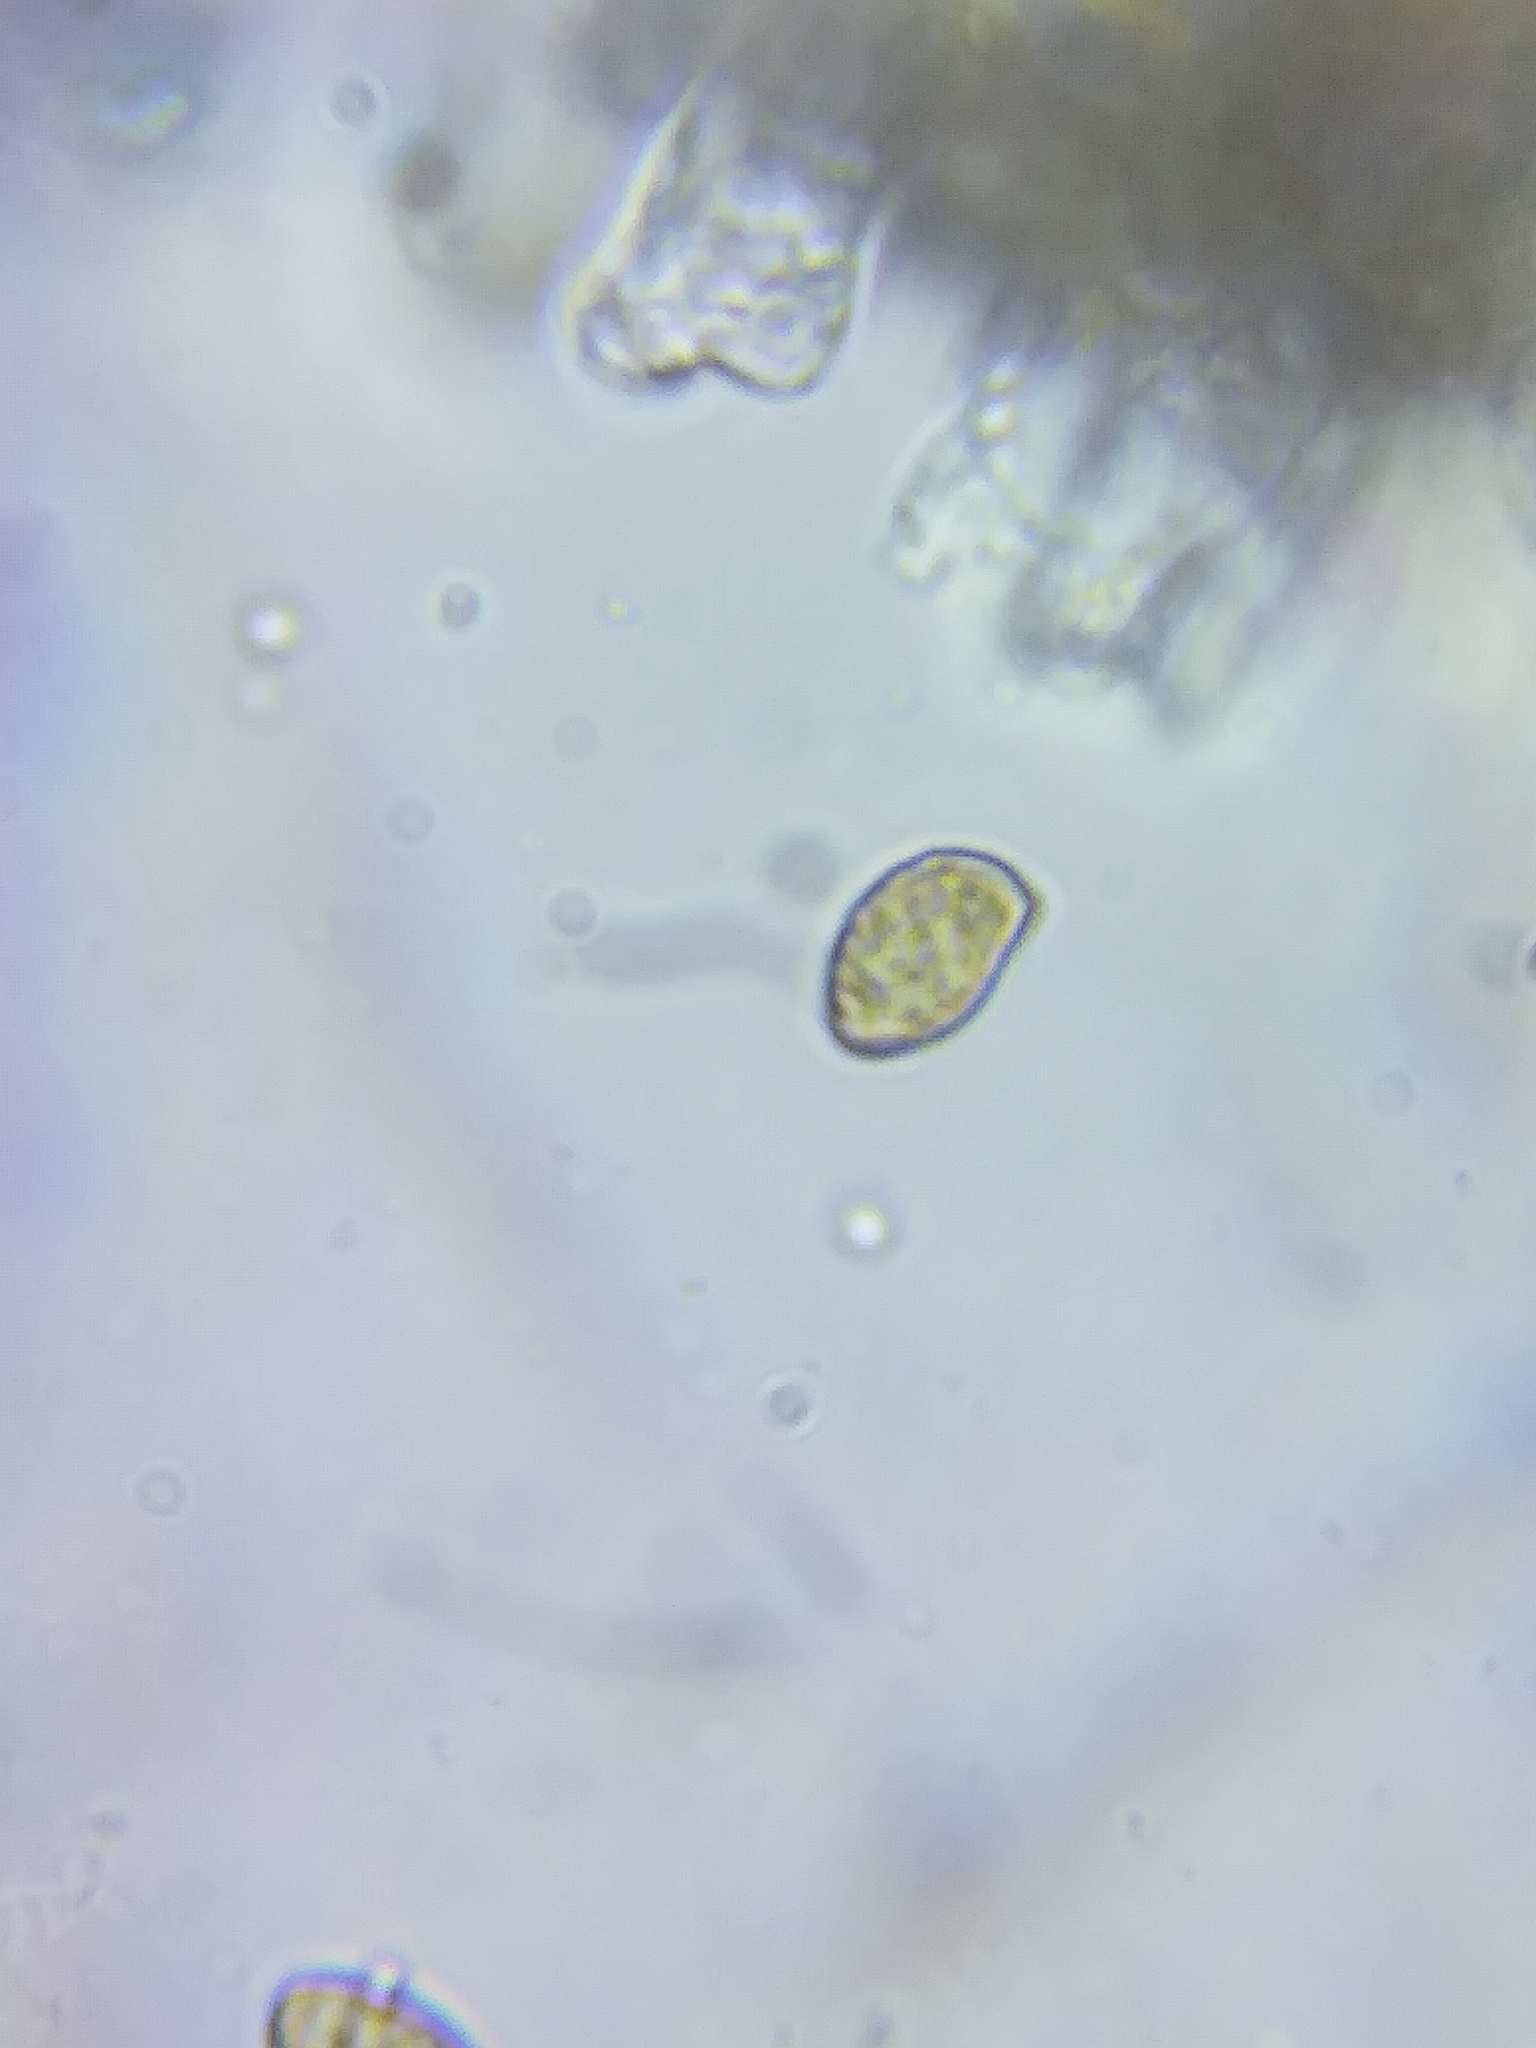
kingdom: Fungi
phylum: Basidiomycota
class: Agaricomycetes
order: Agaricales
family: Cortinariaceae
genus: Cortinarius
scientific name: Cortinarius torvus
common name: Stocking webcap
